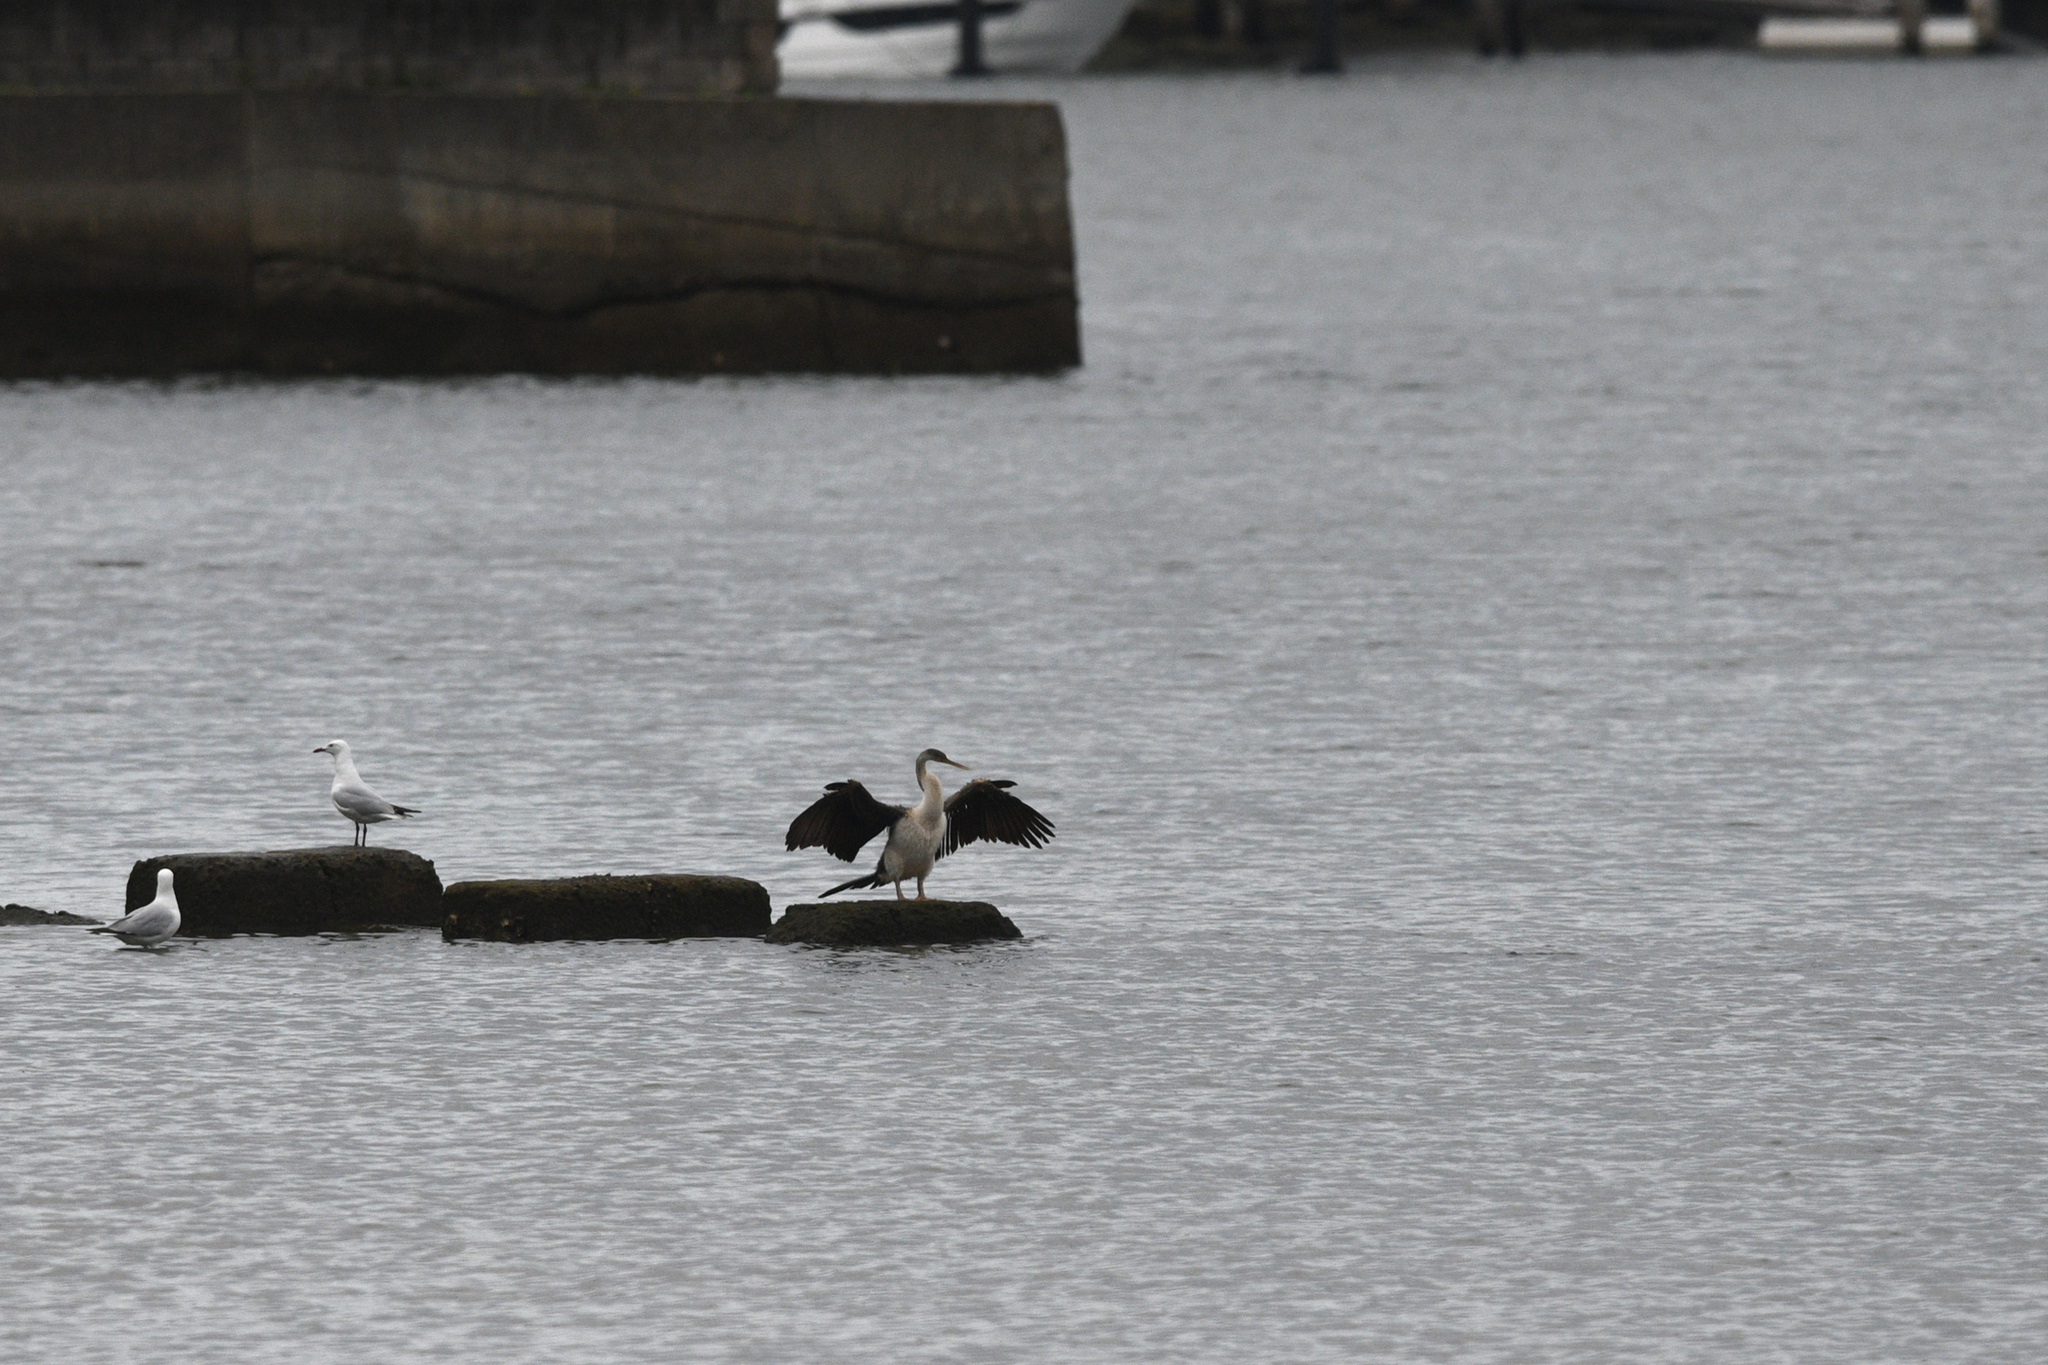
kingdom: Animalia
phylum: Chordata
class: Aves
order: Suliformes
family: Anhingidae
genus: Anhinga
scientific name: Anhinga novaehollandiae
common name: Australasian darter
